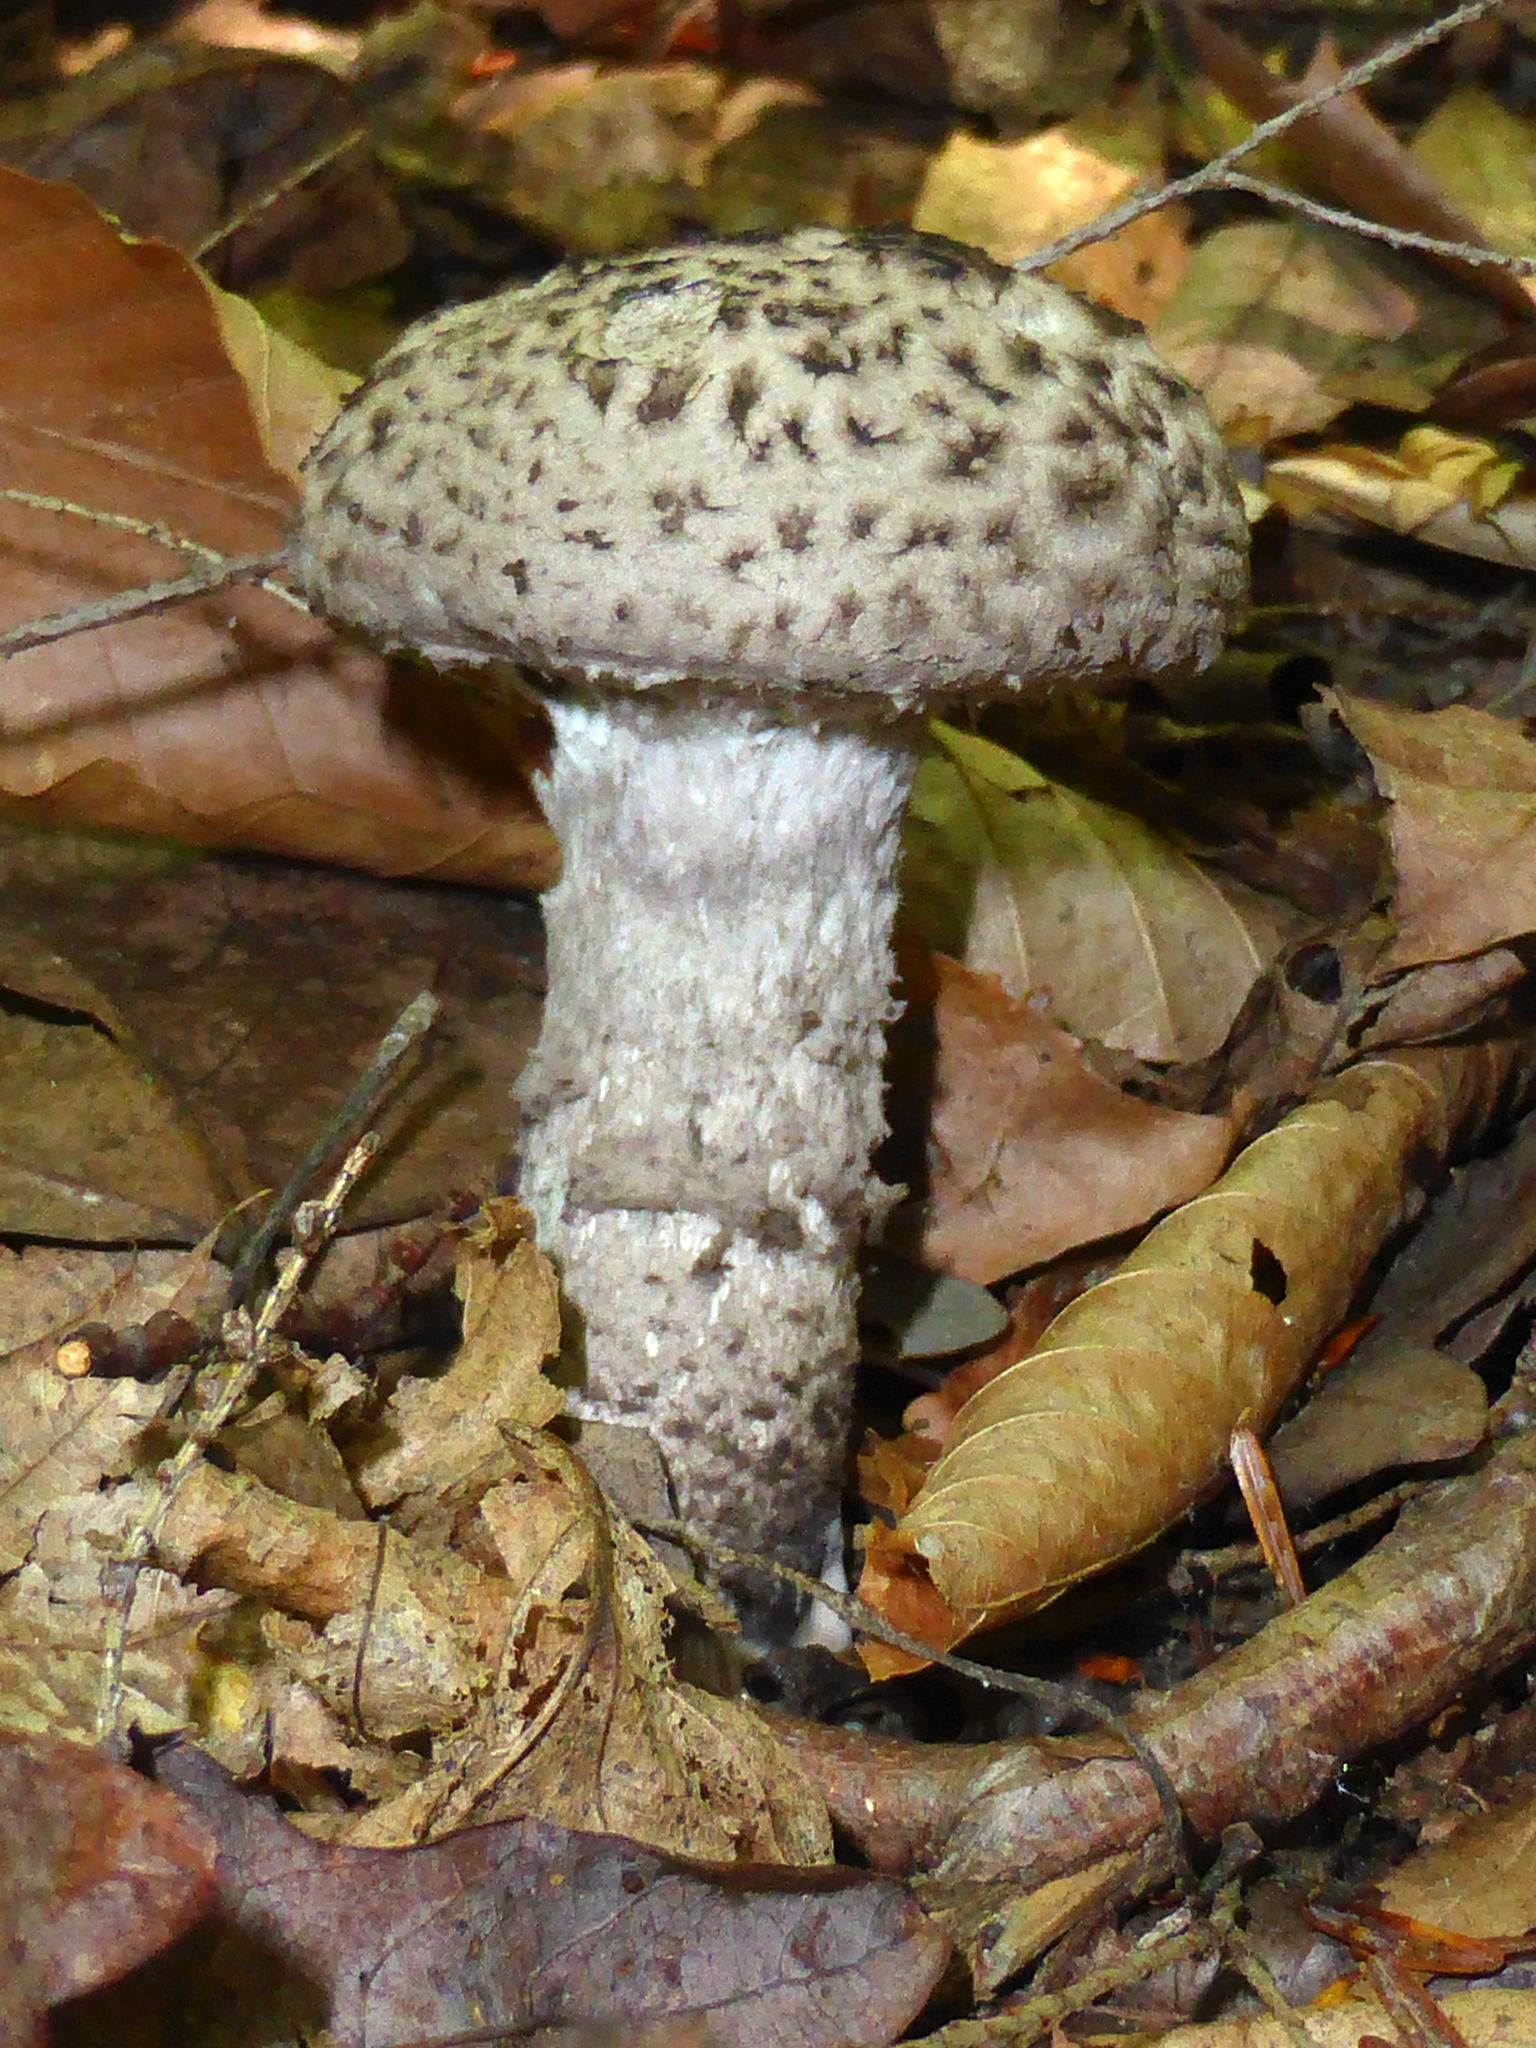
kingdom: Fungi
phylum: Basidiomycota
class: Agaricomycetes
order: Boletales
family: Boletaceae
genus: Strobilomyces
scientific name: Strobilomyces strobilaceus
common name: Old man of the woods
